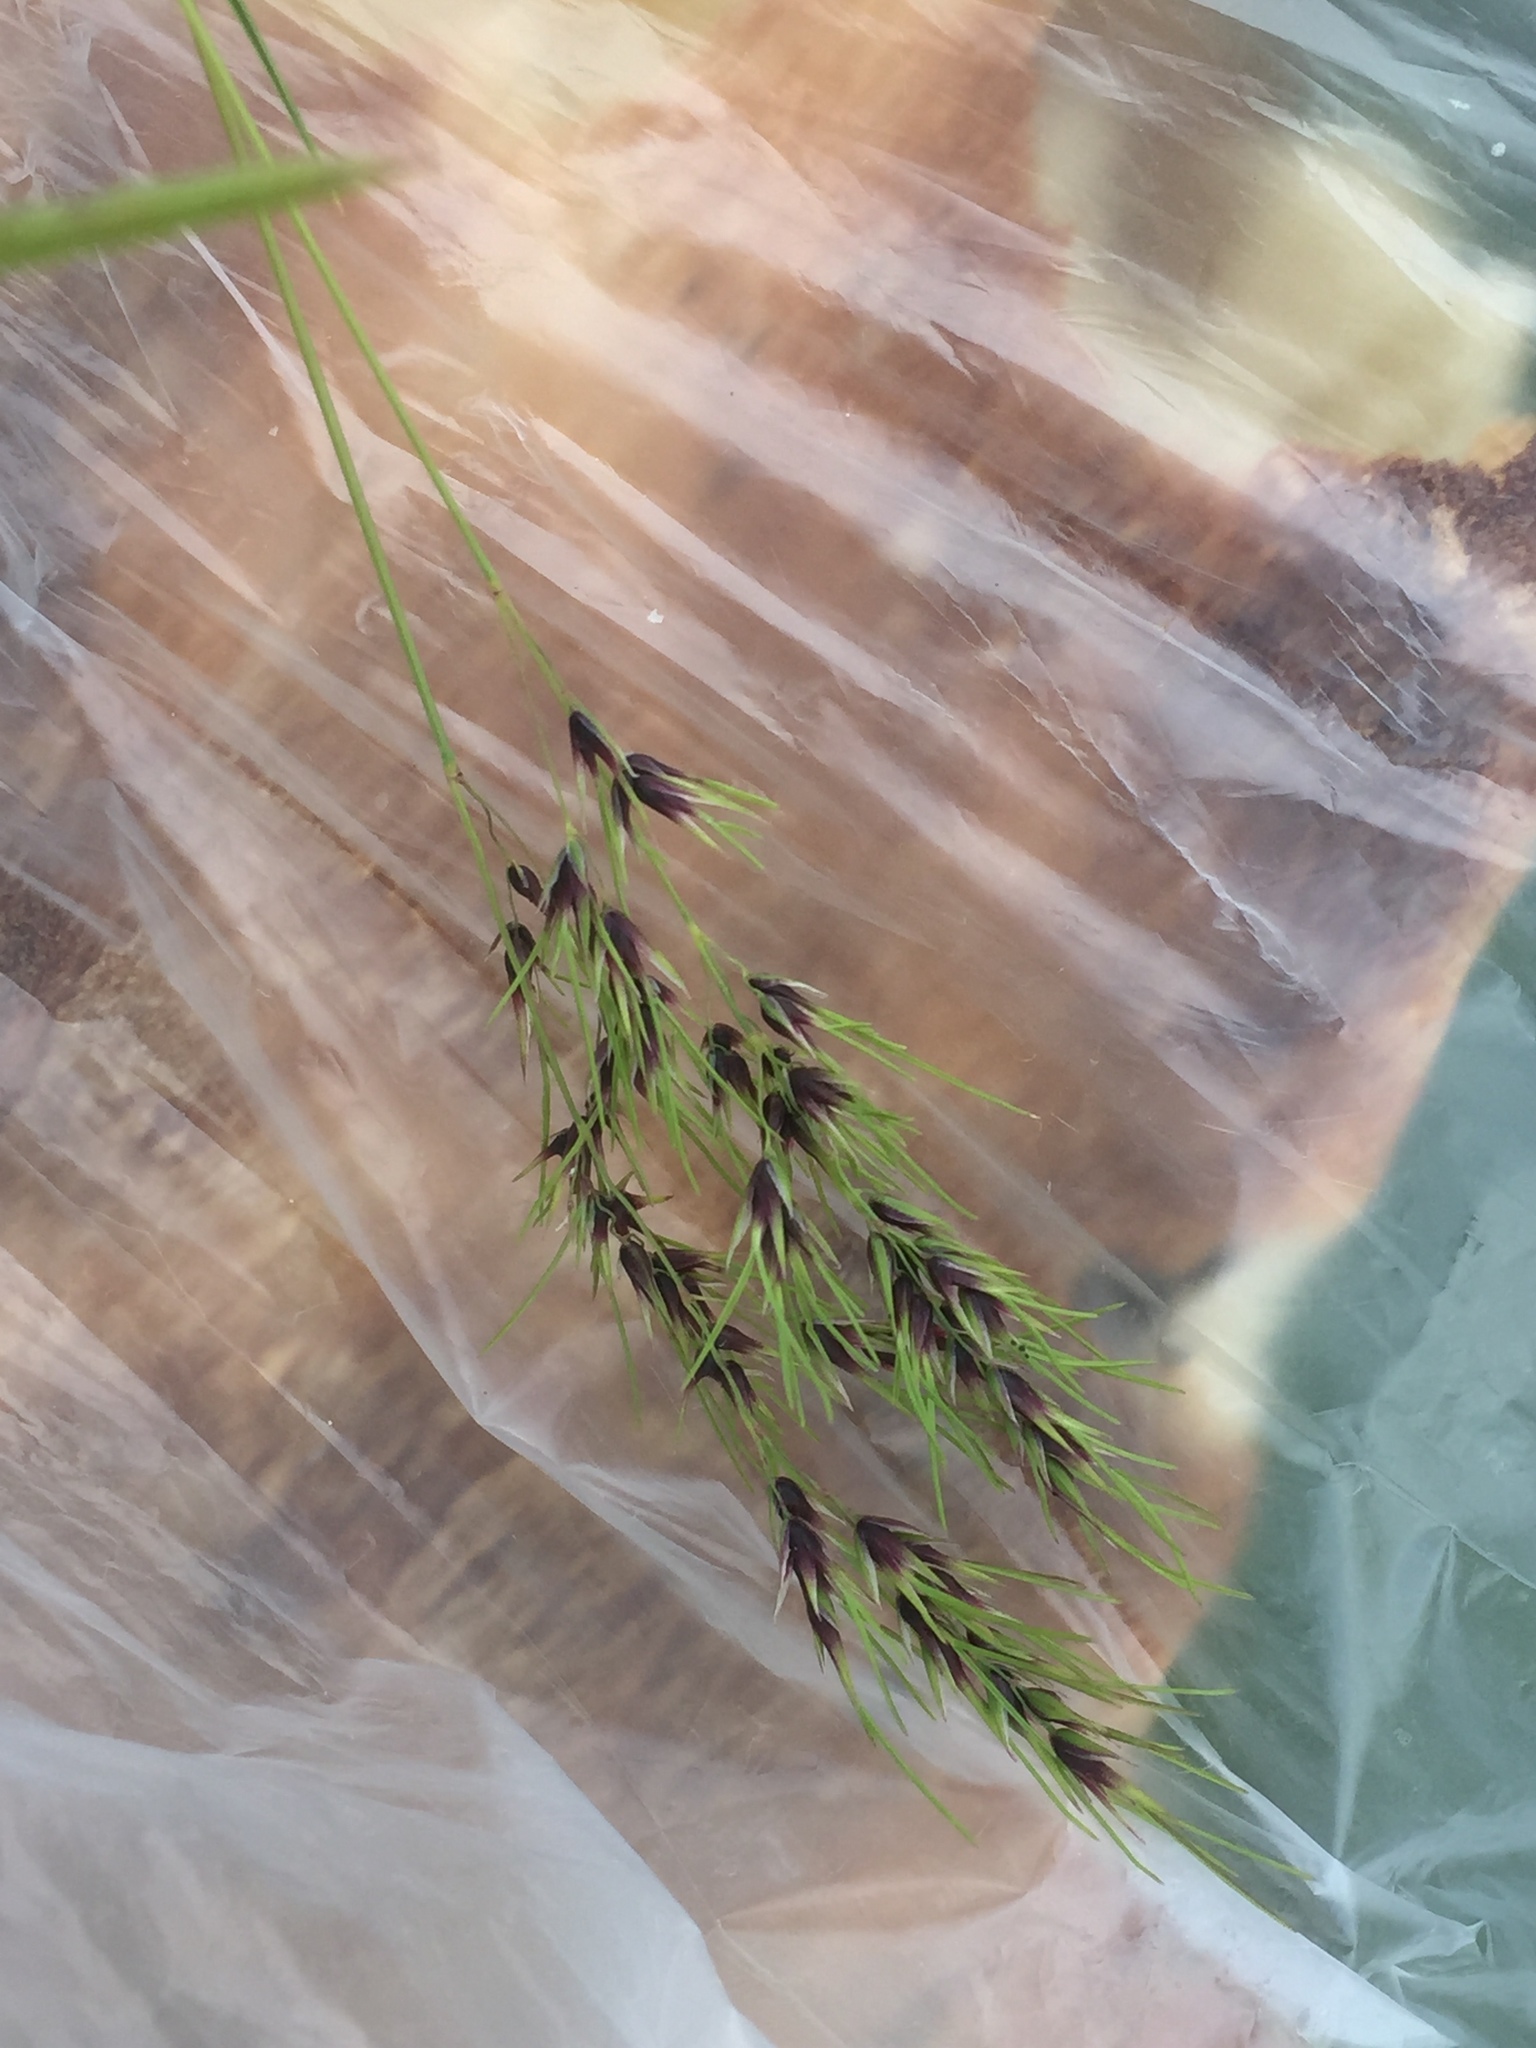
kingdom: Plantae
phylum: Tracheophyta
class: Liliopsida
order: Poales
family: Poaceae
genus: Poa
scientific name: Poa bulbosa
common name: Bulbous bluegrass
